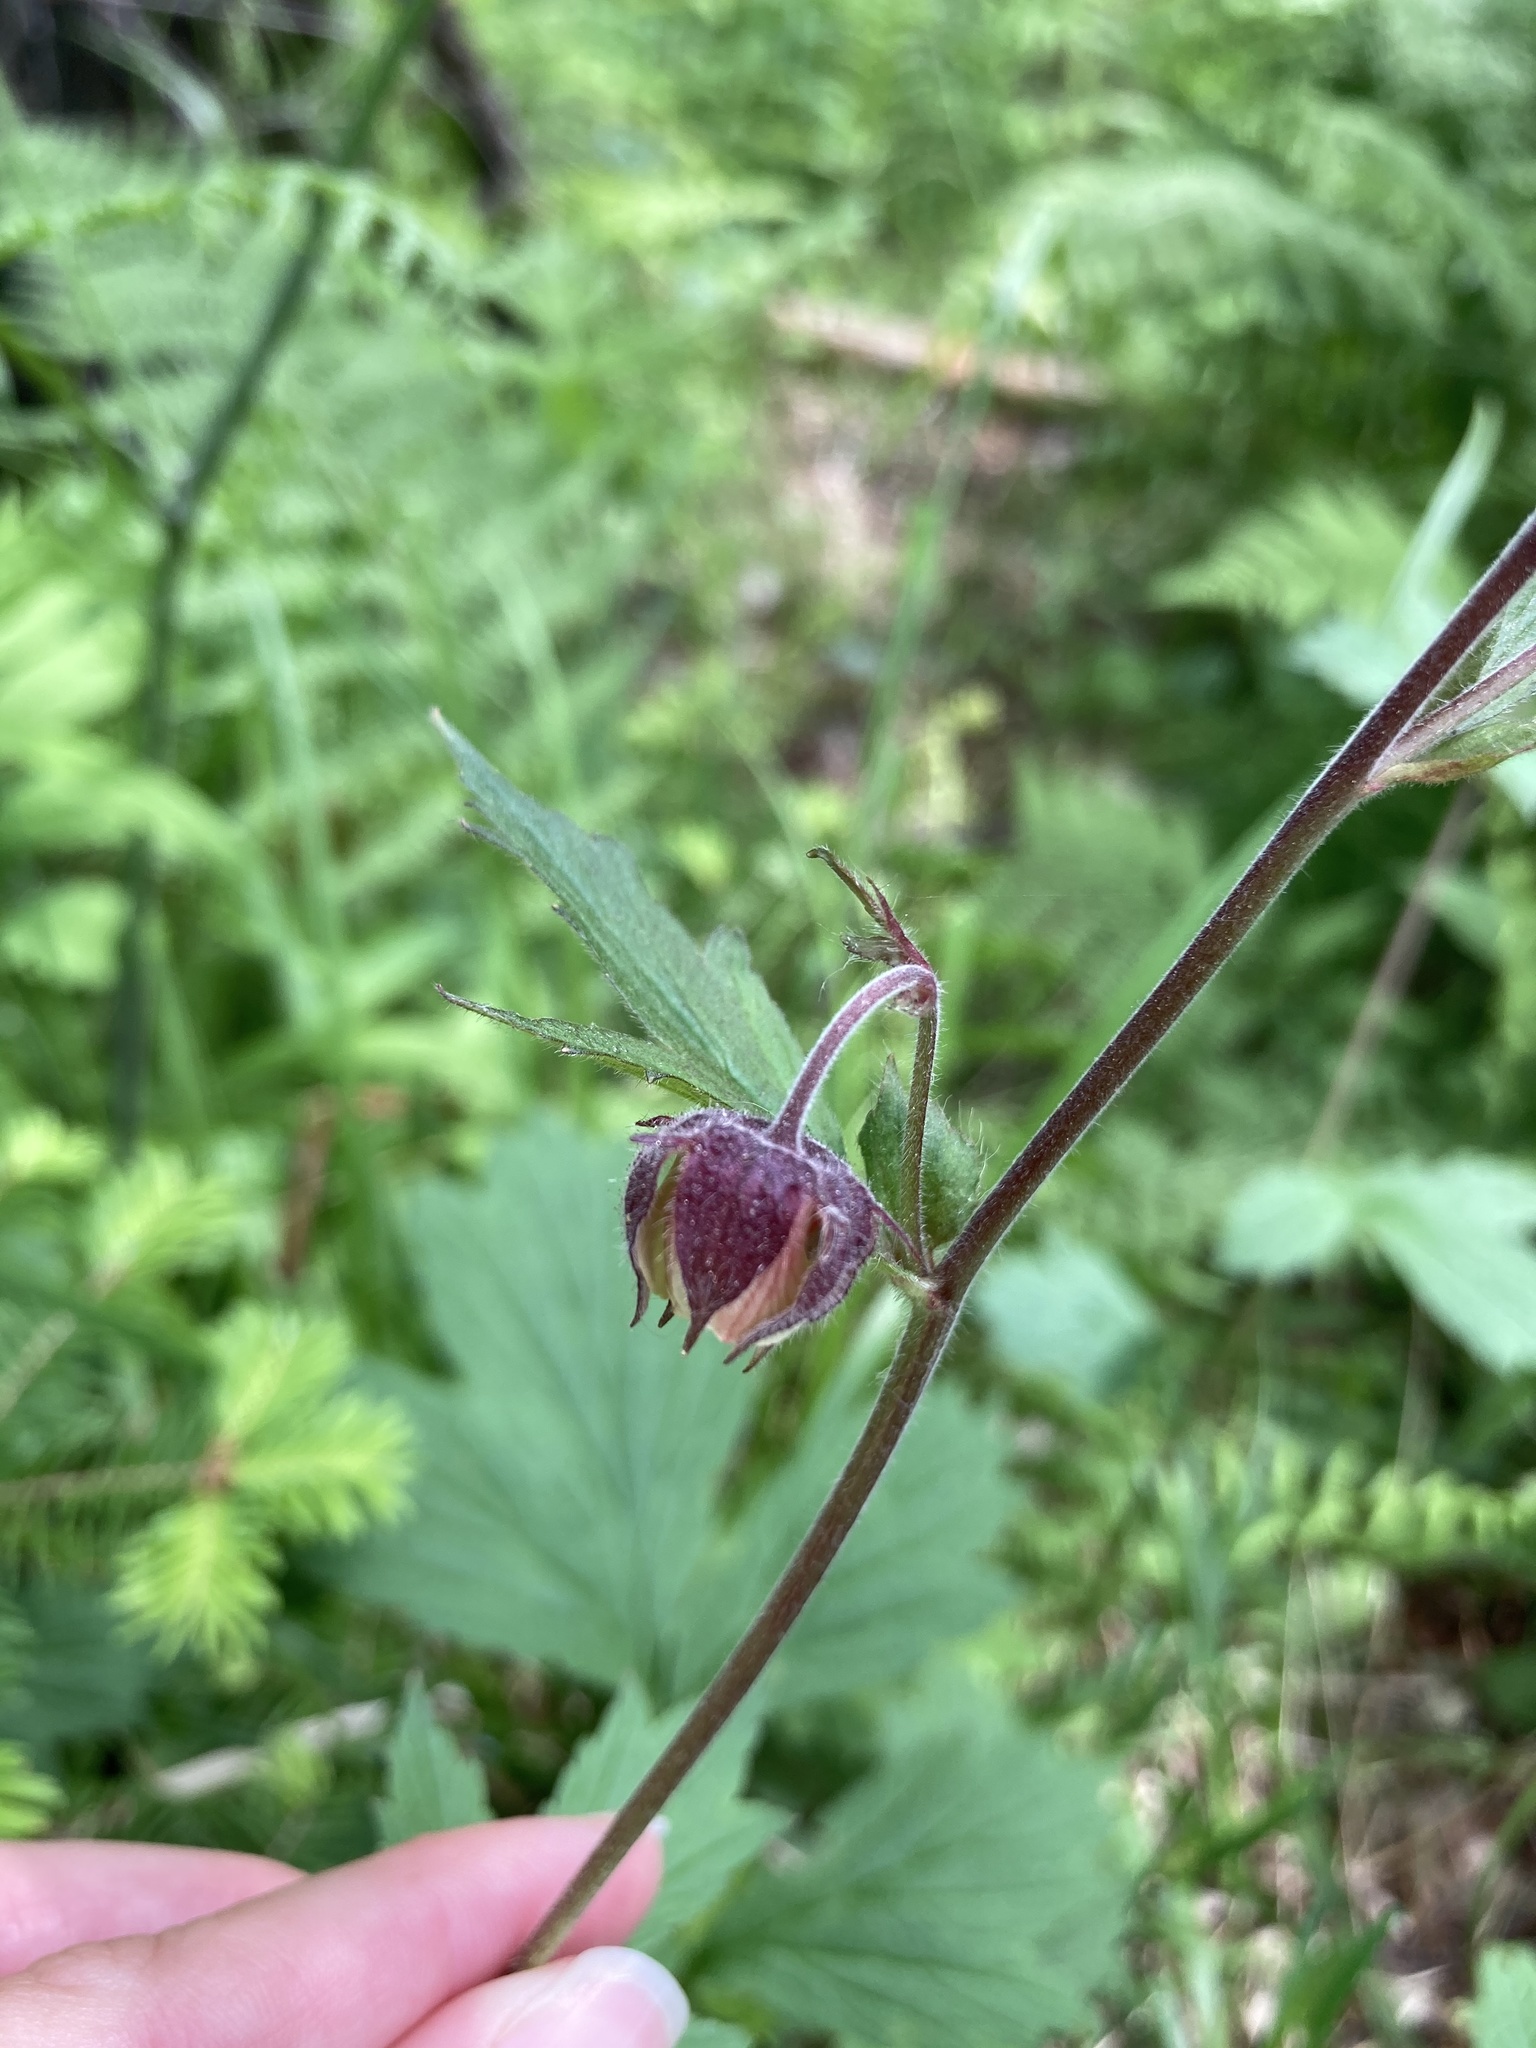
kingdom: Plantae
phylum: Tracheophyta
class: Magnoliopsida
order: Rosales
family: Rosaceae
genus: Geum
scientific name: Geum rivale
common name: Water avens
